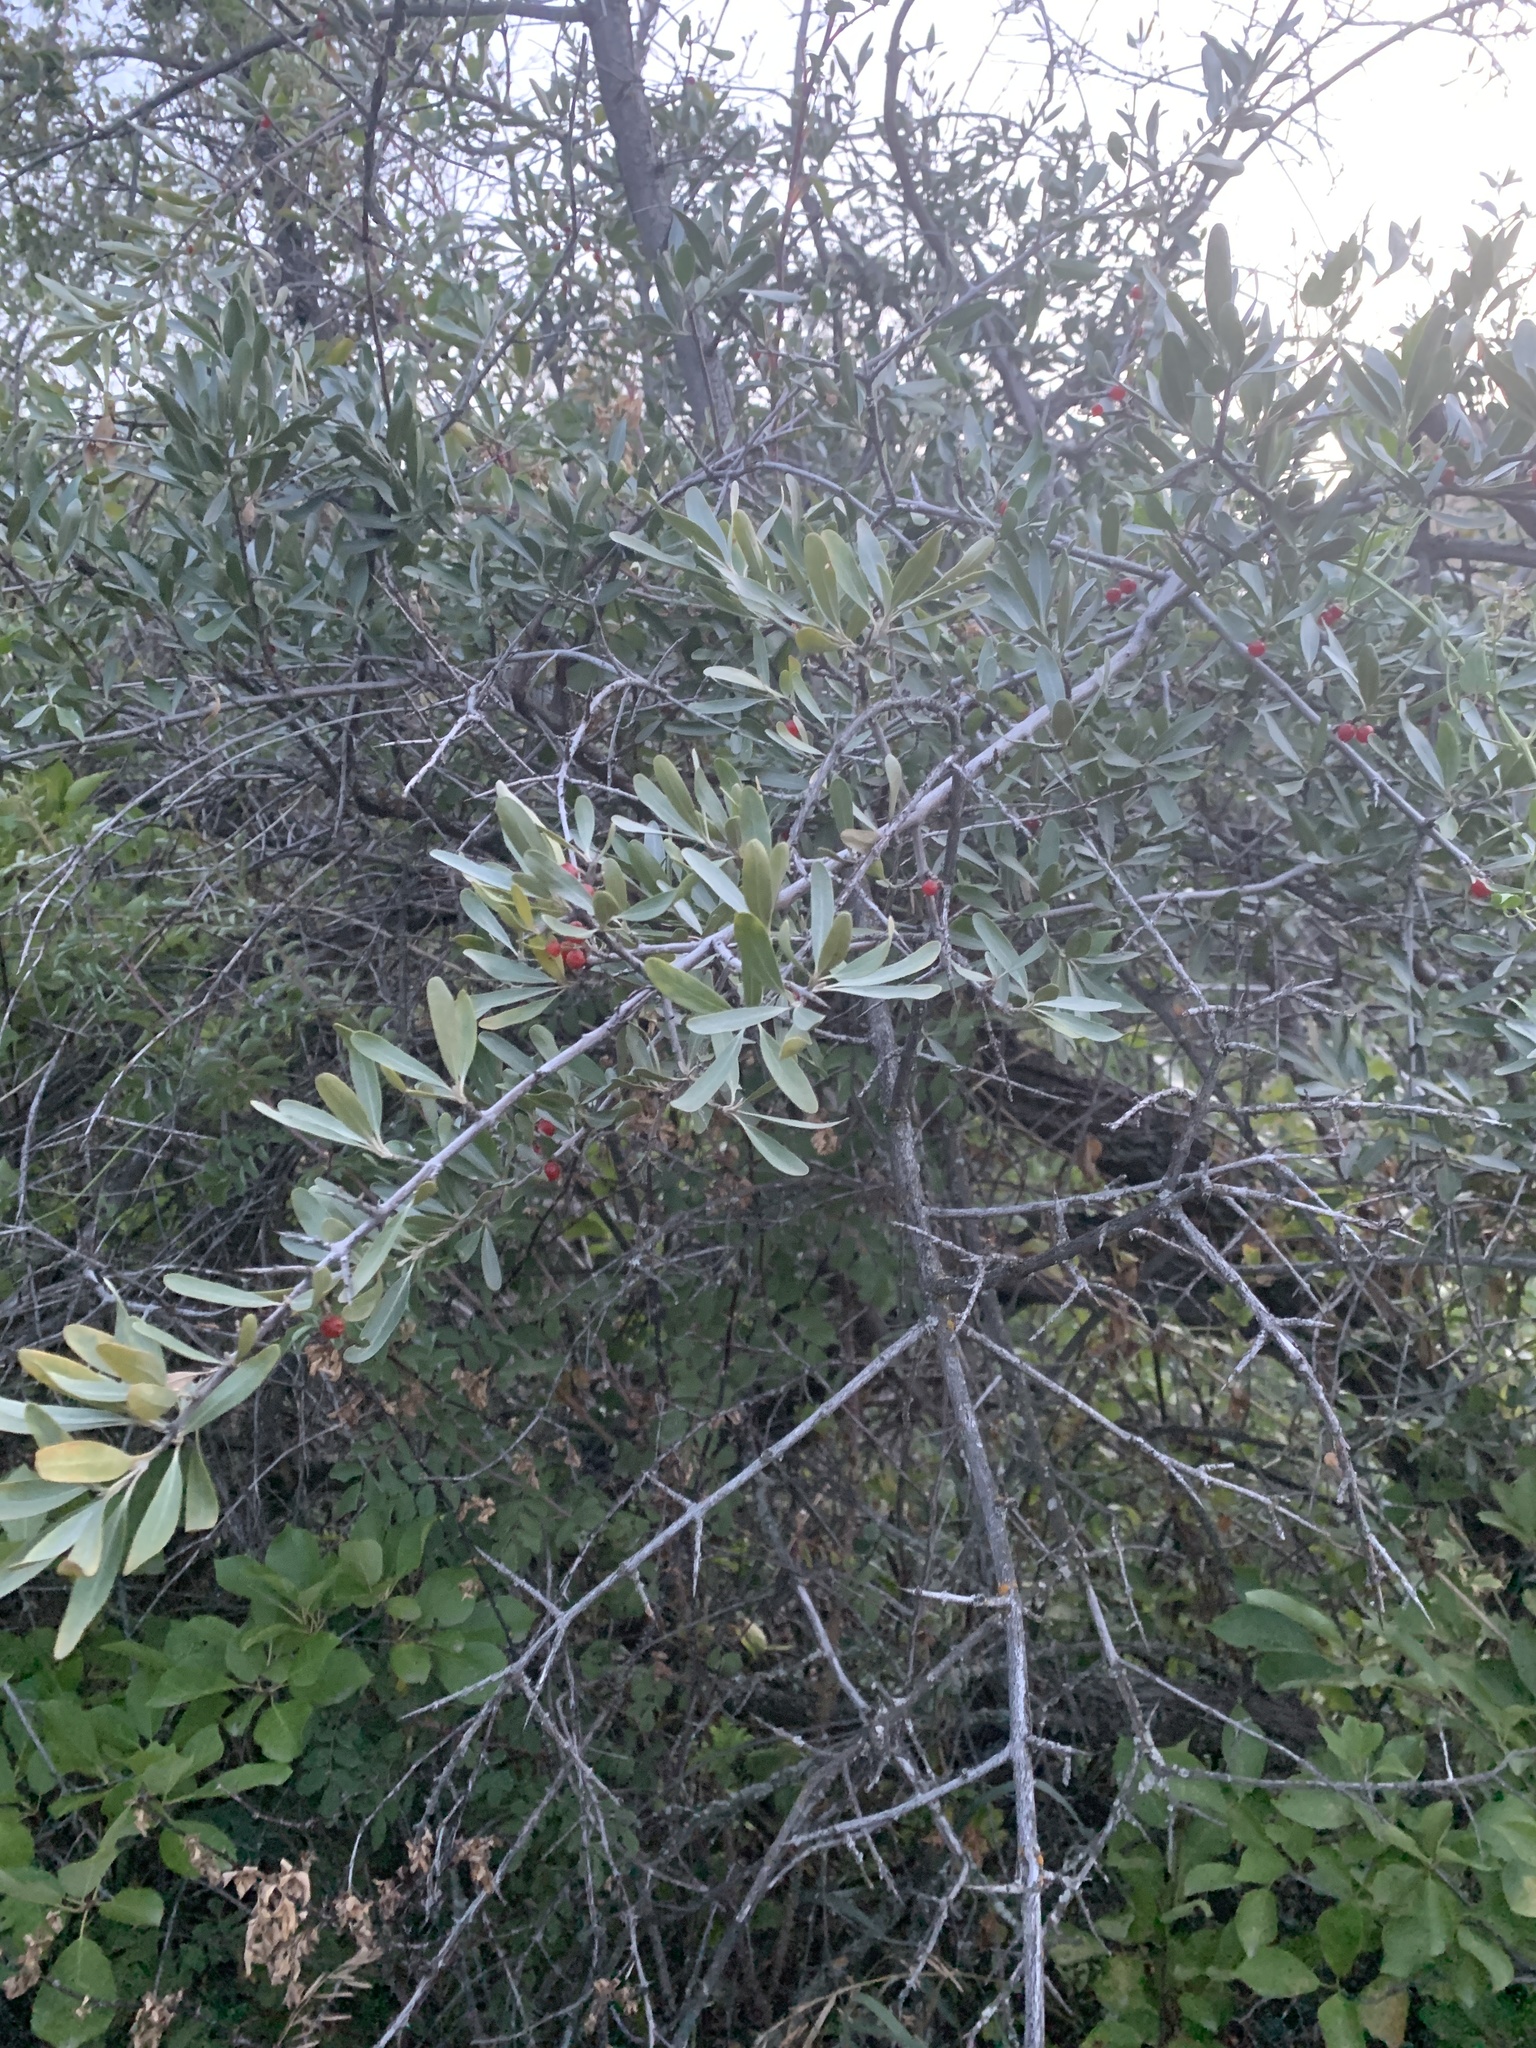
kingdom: Plantae
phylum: Tracheophyta
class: Magnoliopsida
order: Rosales
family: Elaeagnaceae
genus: Shepherdia
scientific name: Shepherdia argentea
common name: Silver buffaloberry
